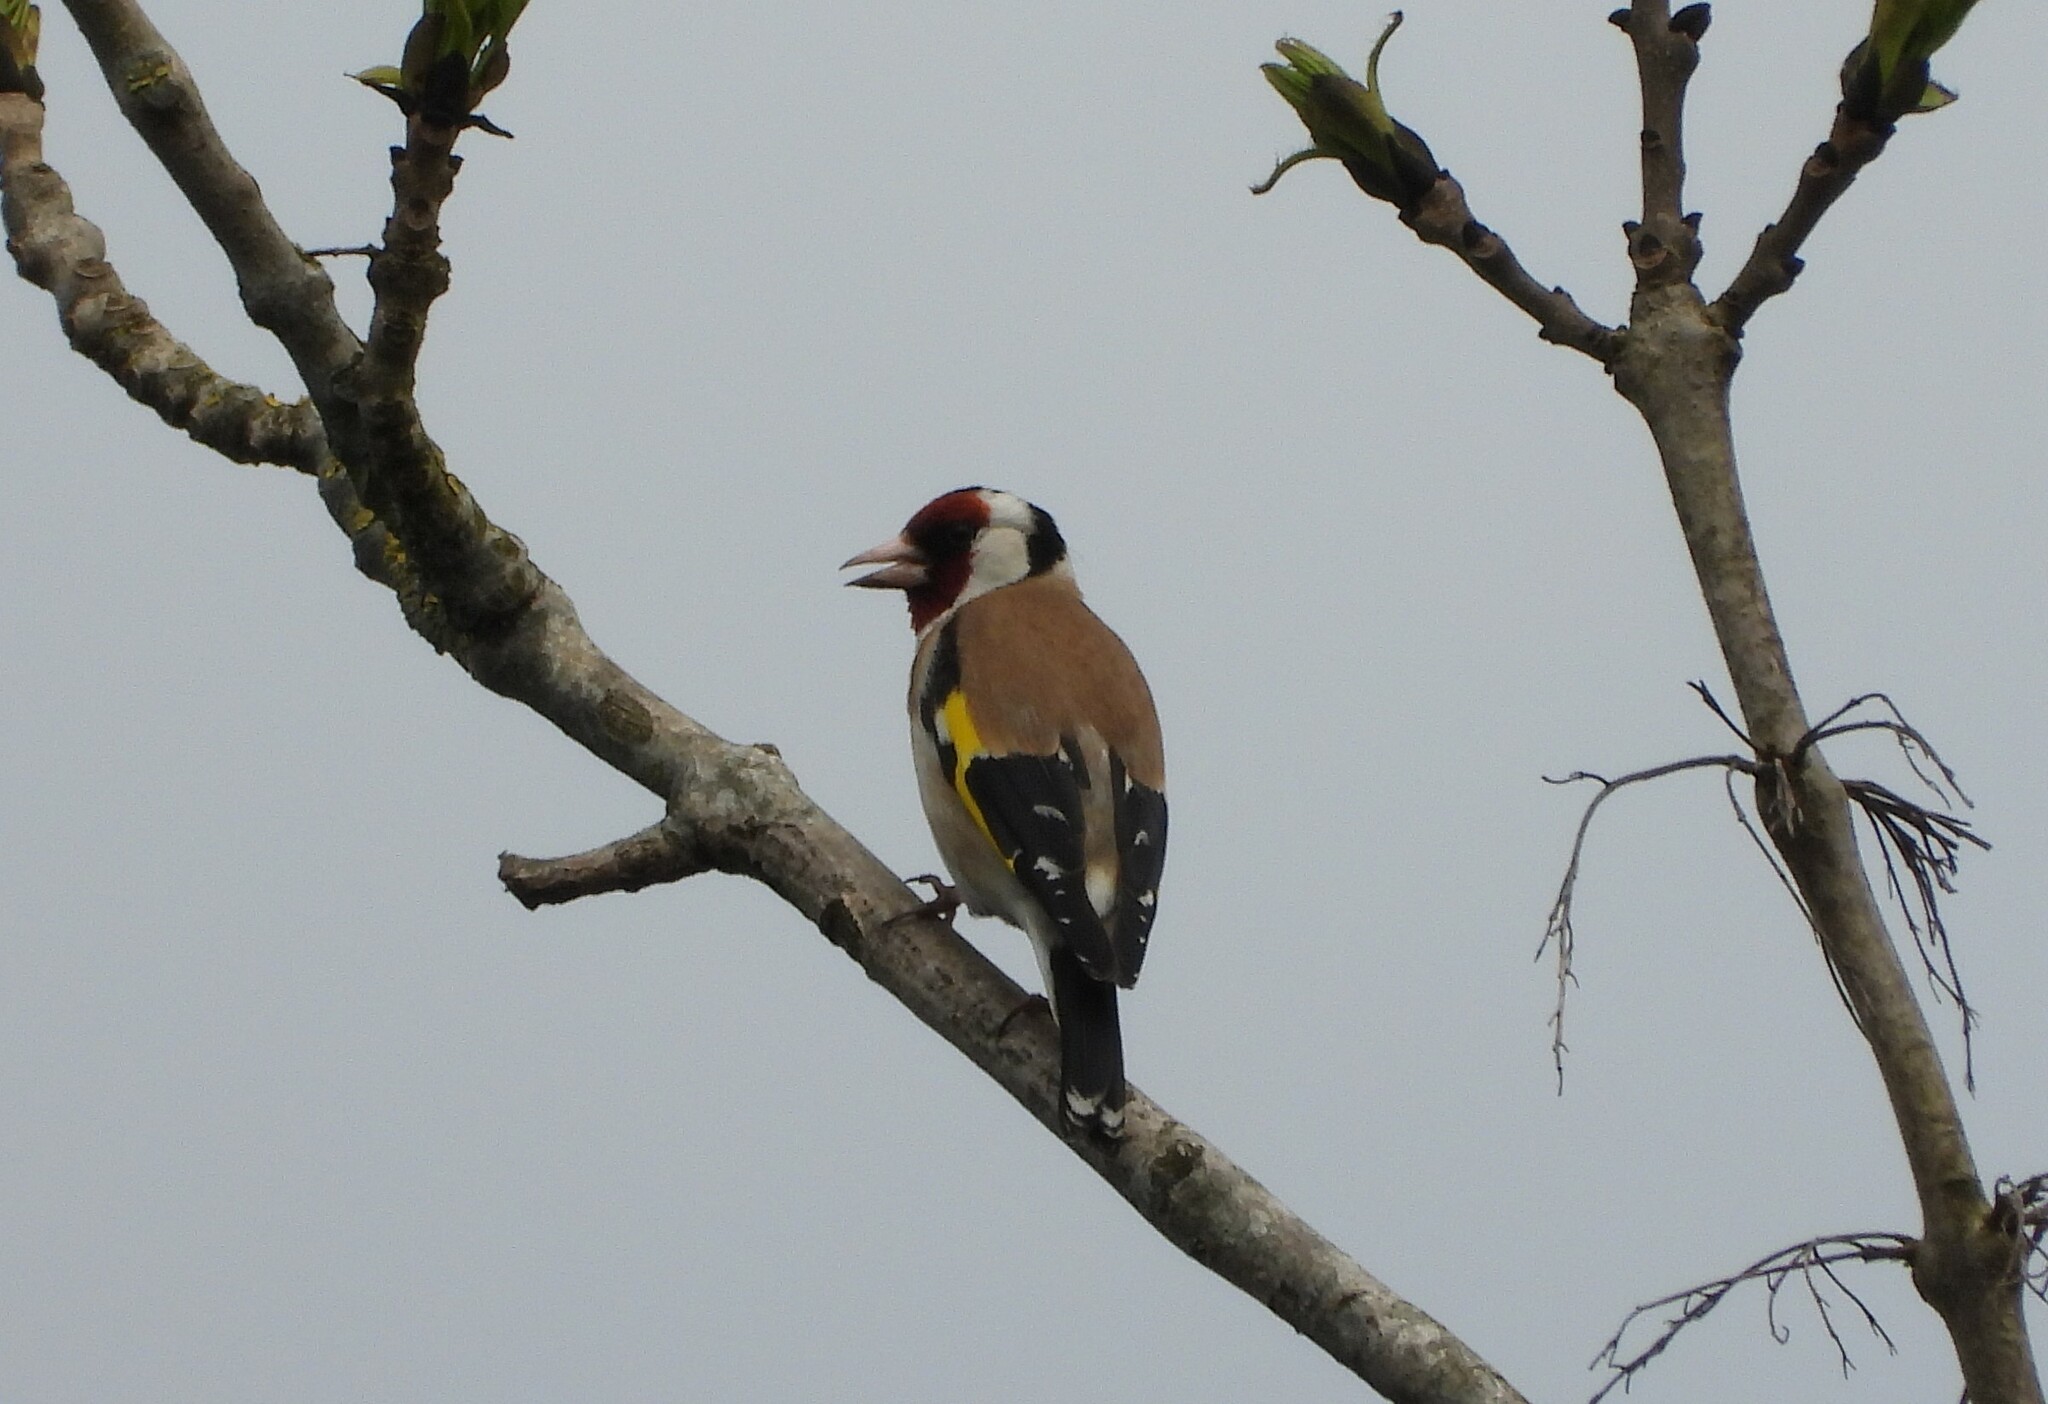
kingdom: Animalia
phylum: Chordata
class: Aves
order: Passeriformes
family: Fringillidae
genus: Carduelis
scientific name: Carduelis carduelis
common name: European goldfinch
